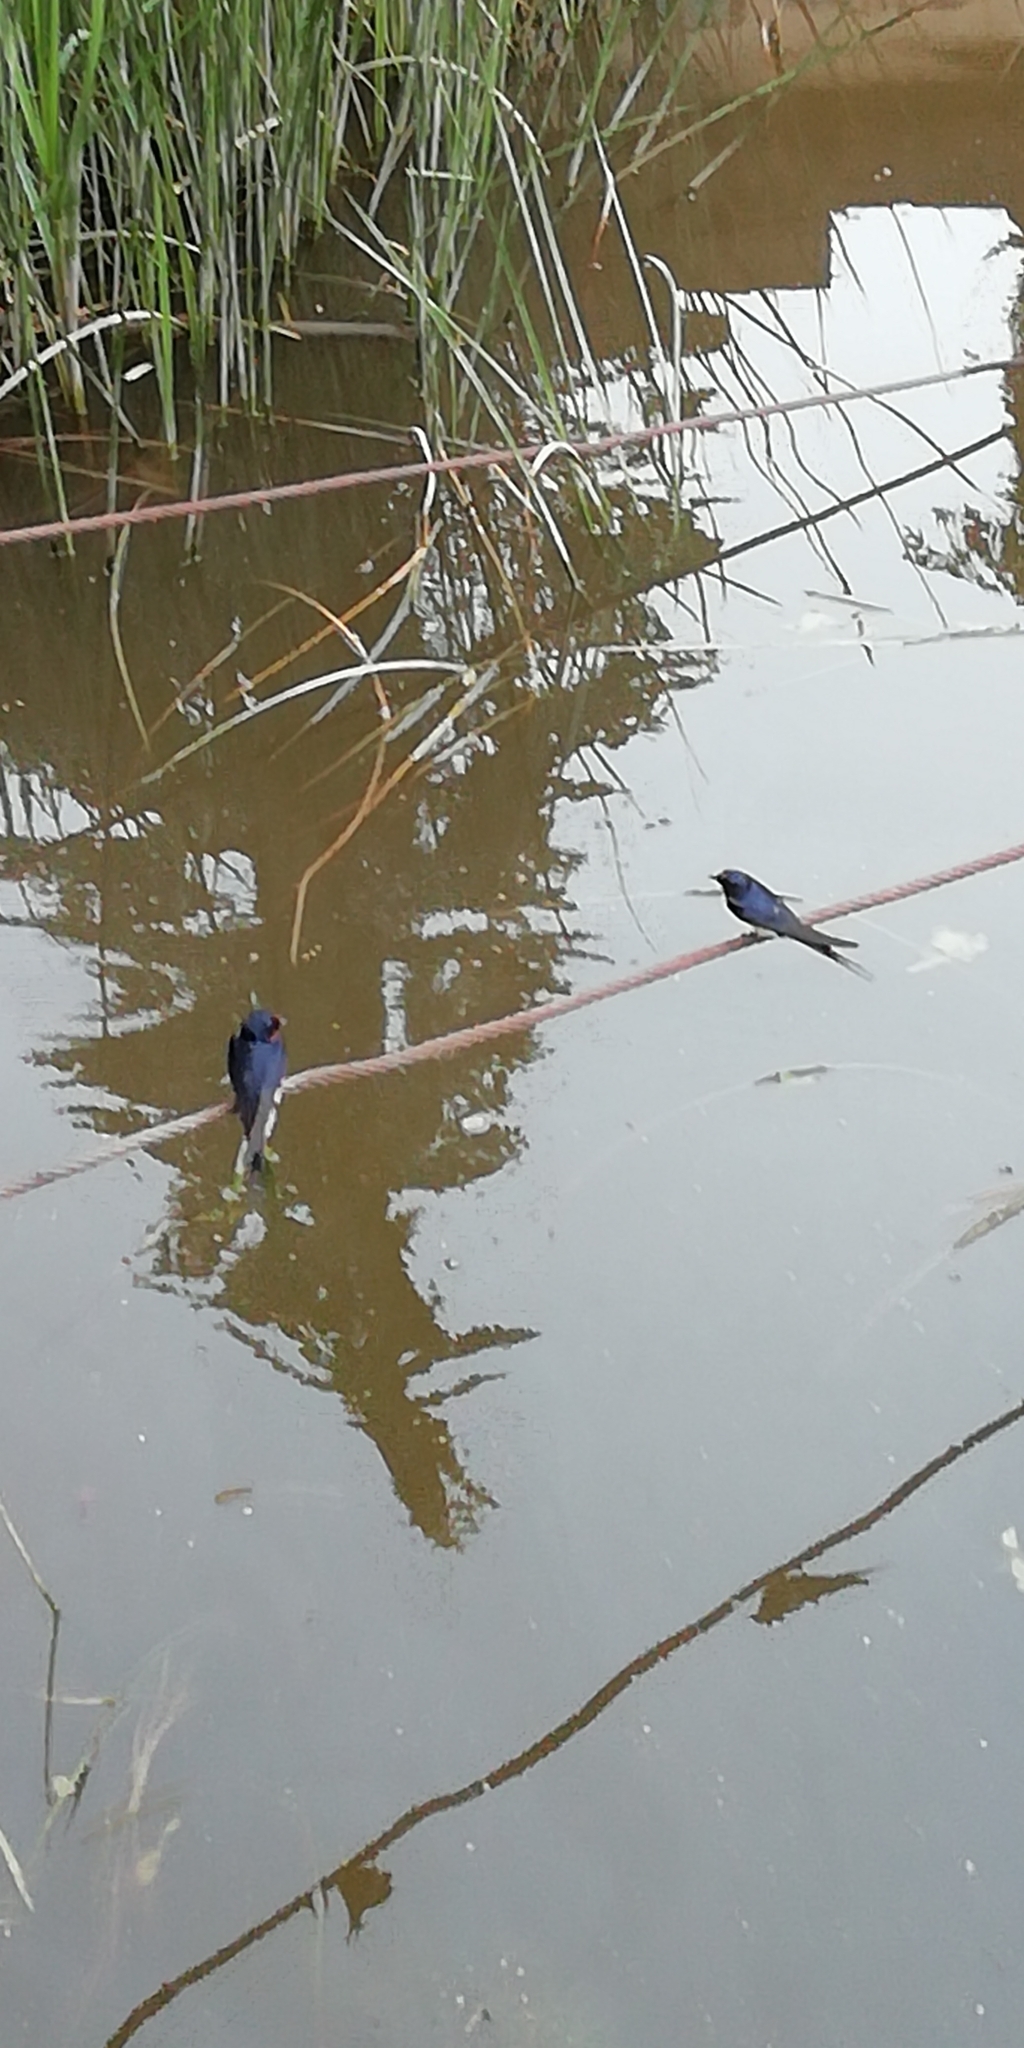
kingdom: Animalia
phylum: Chordata
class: Aves
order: Passeriformes
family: Hirundinidae
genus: Hirundo
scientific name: Hirundo rustica
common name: Barn swallow
